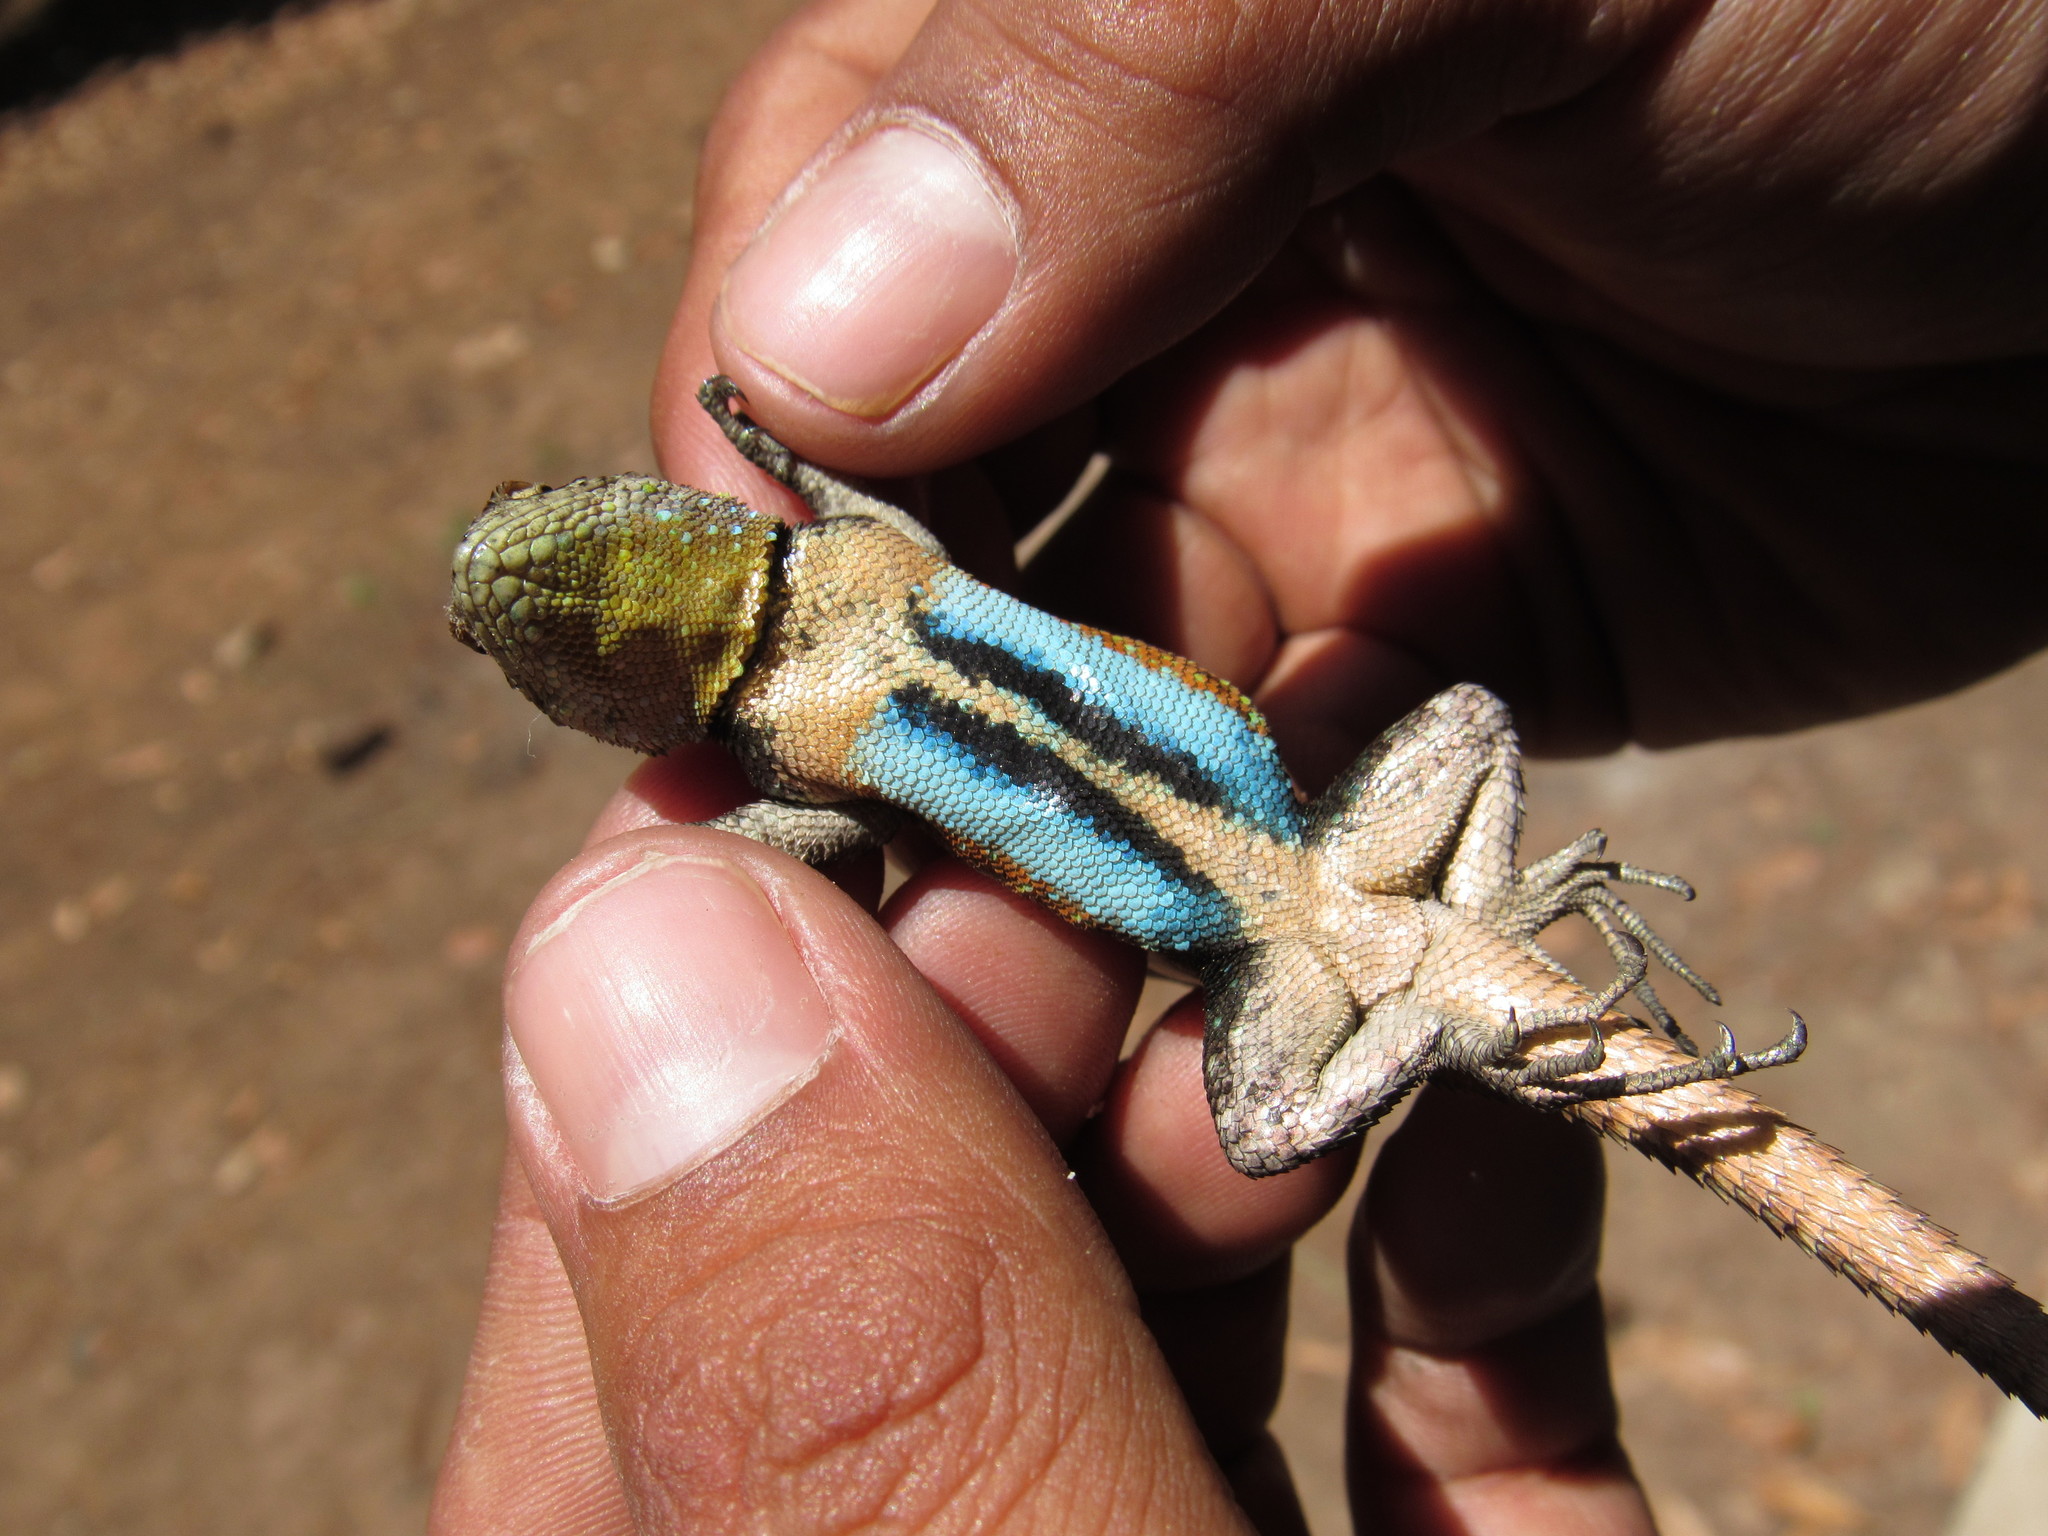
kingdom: Animalia
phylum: Chordata
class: Squamata
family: Phrynosomatidae
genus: Sceloporus
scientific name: Sceloporus grammicus
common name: Mesquite lizard
